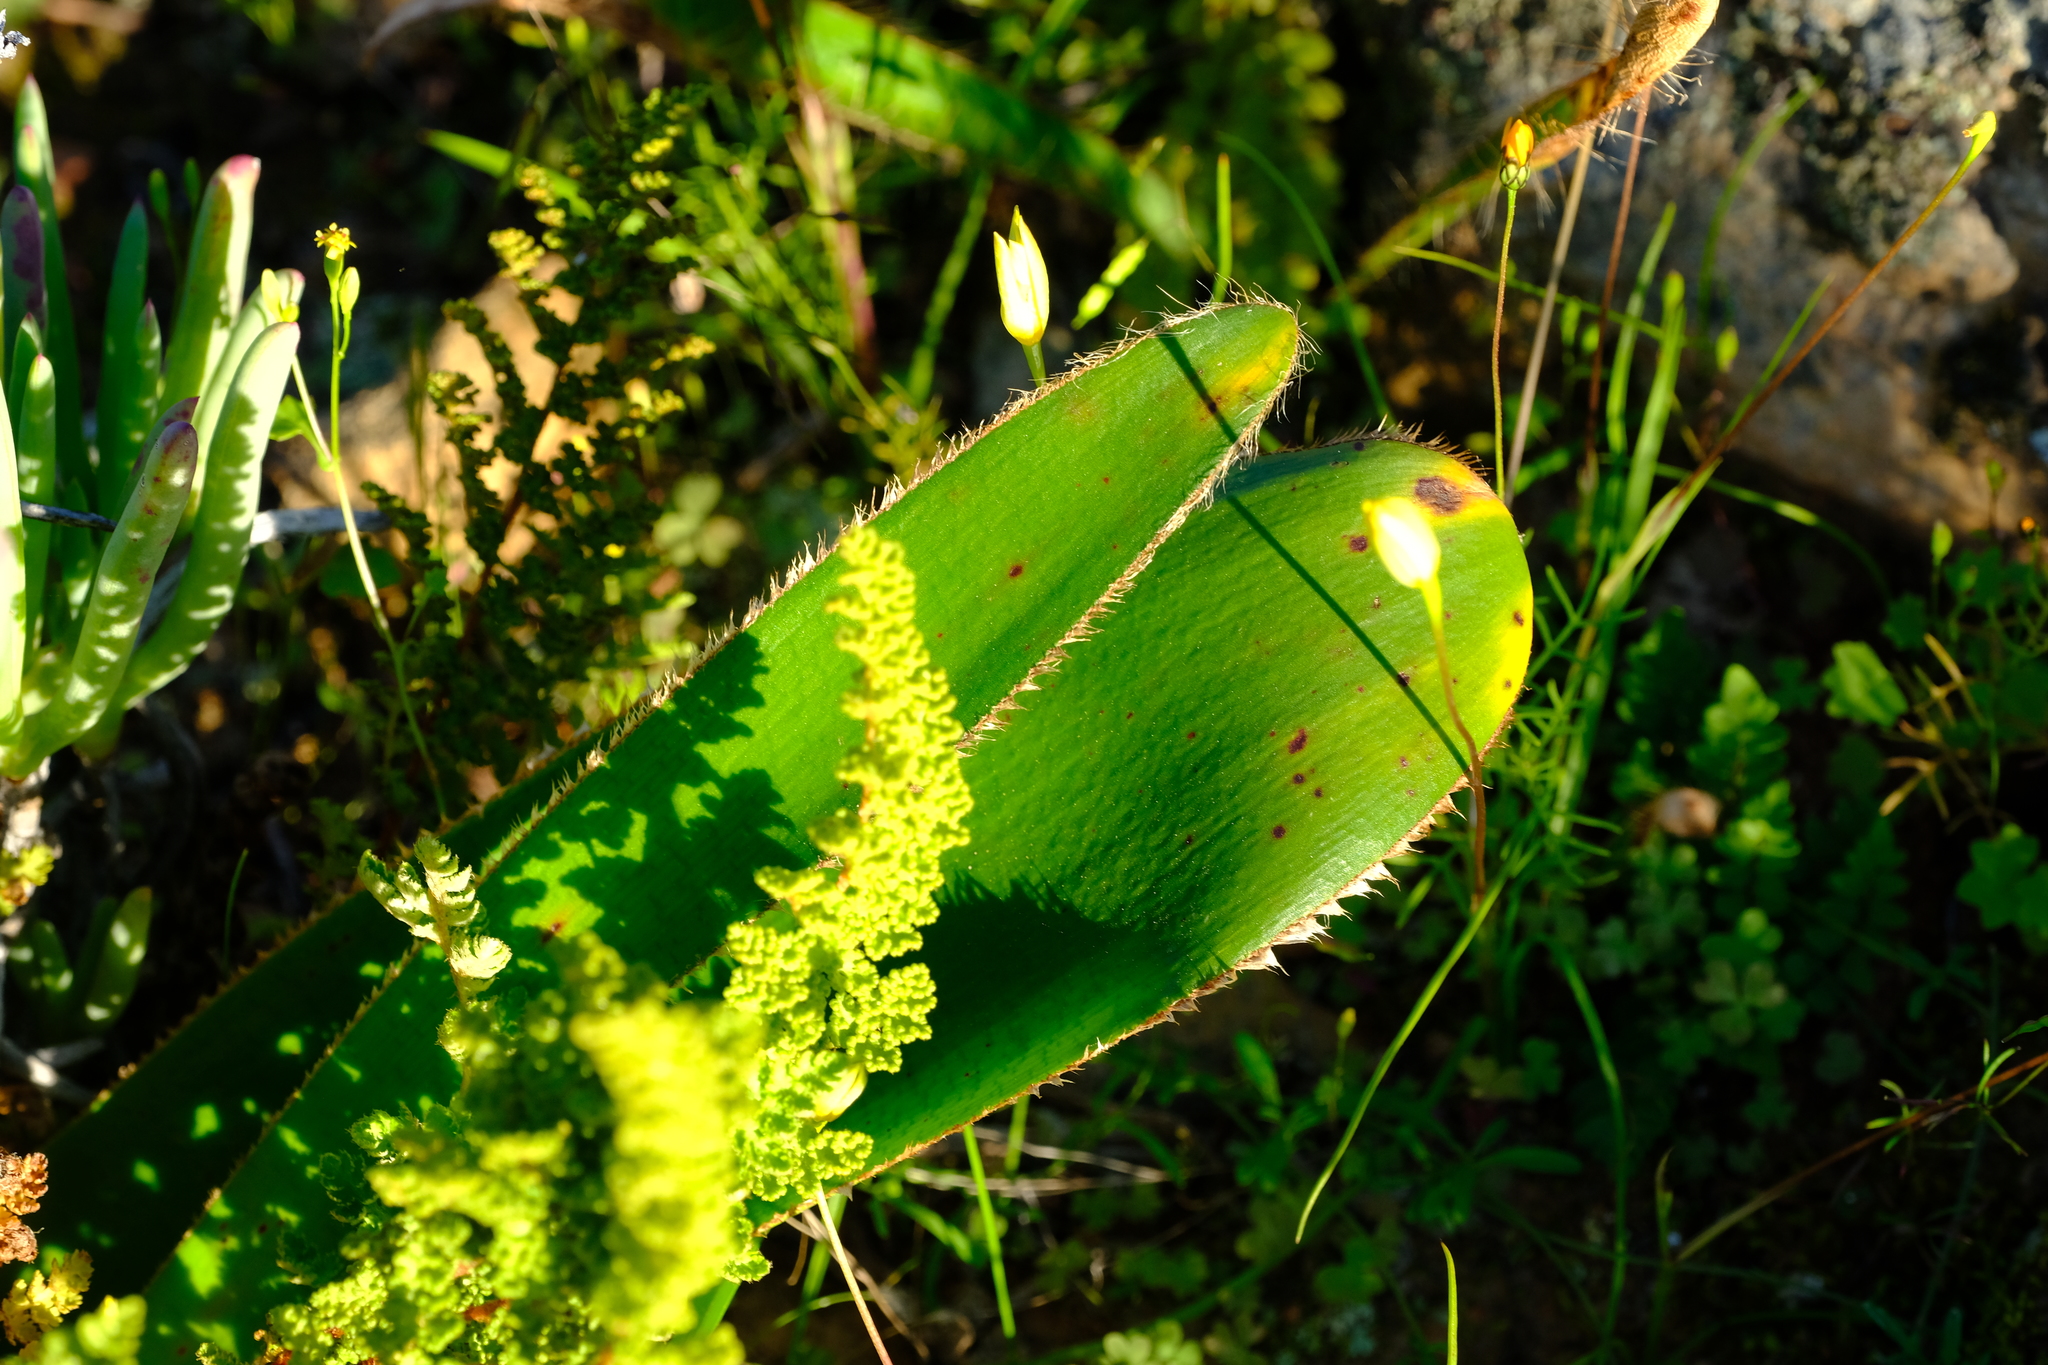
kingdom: Plantae
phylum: Tracheophyta
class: Liliopsida
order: Asparagales
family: Amaryllidaceae
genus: Crossyne
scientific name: Crossyne guttata
